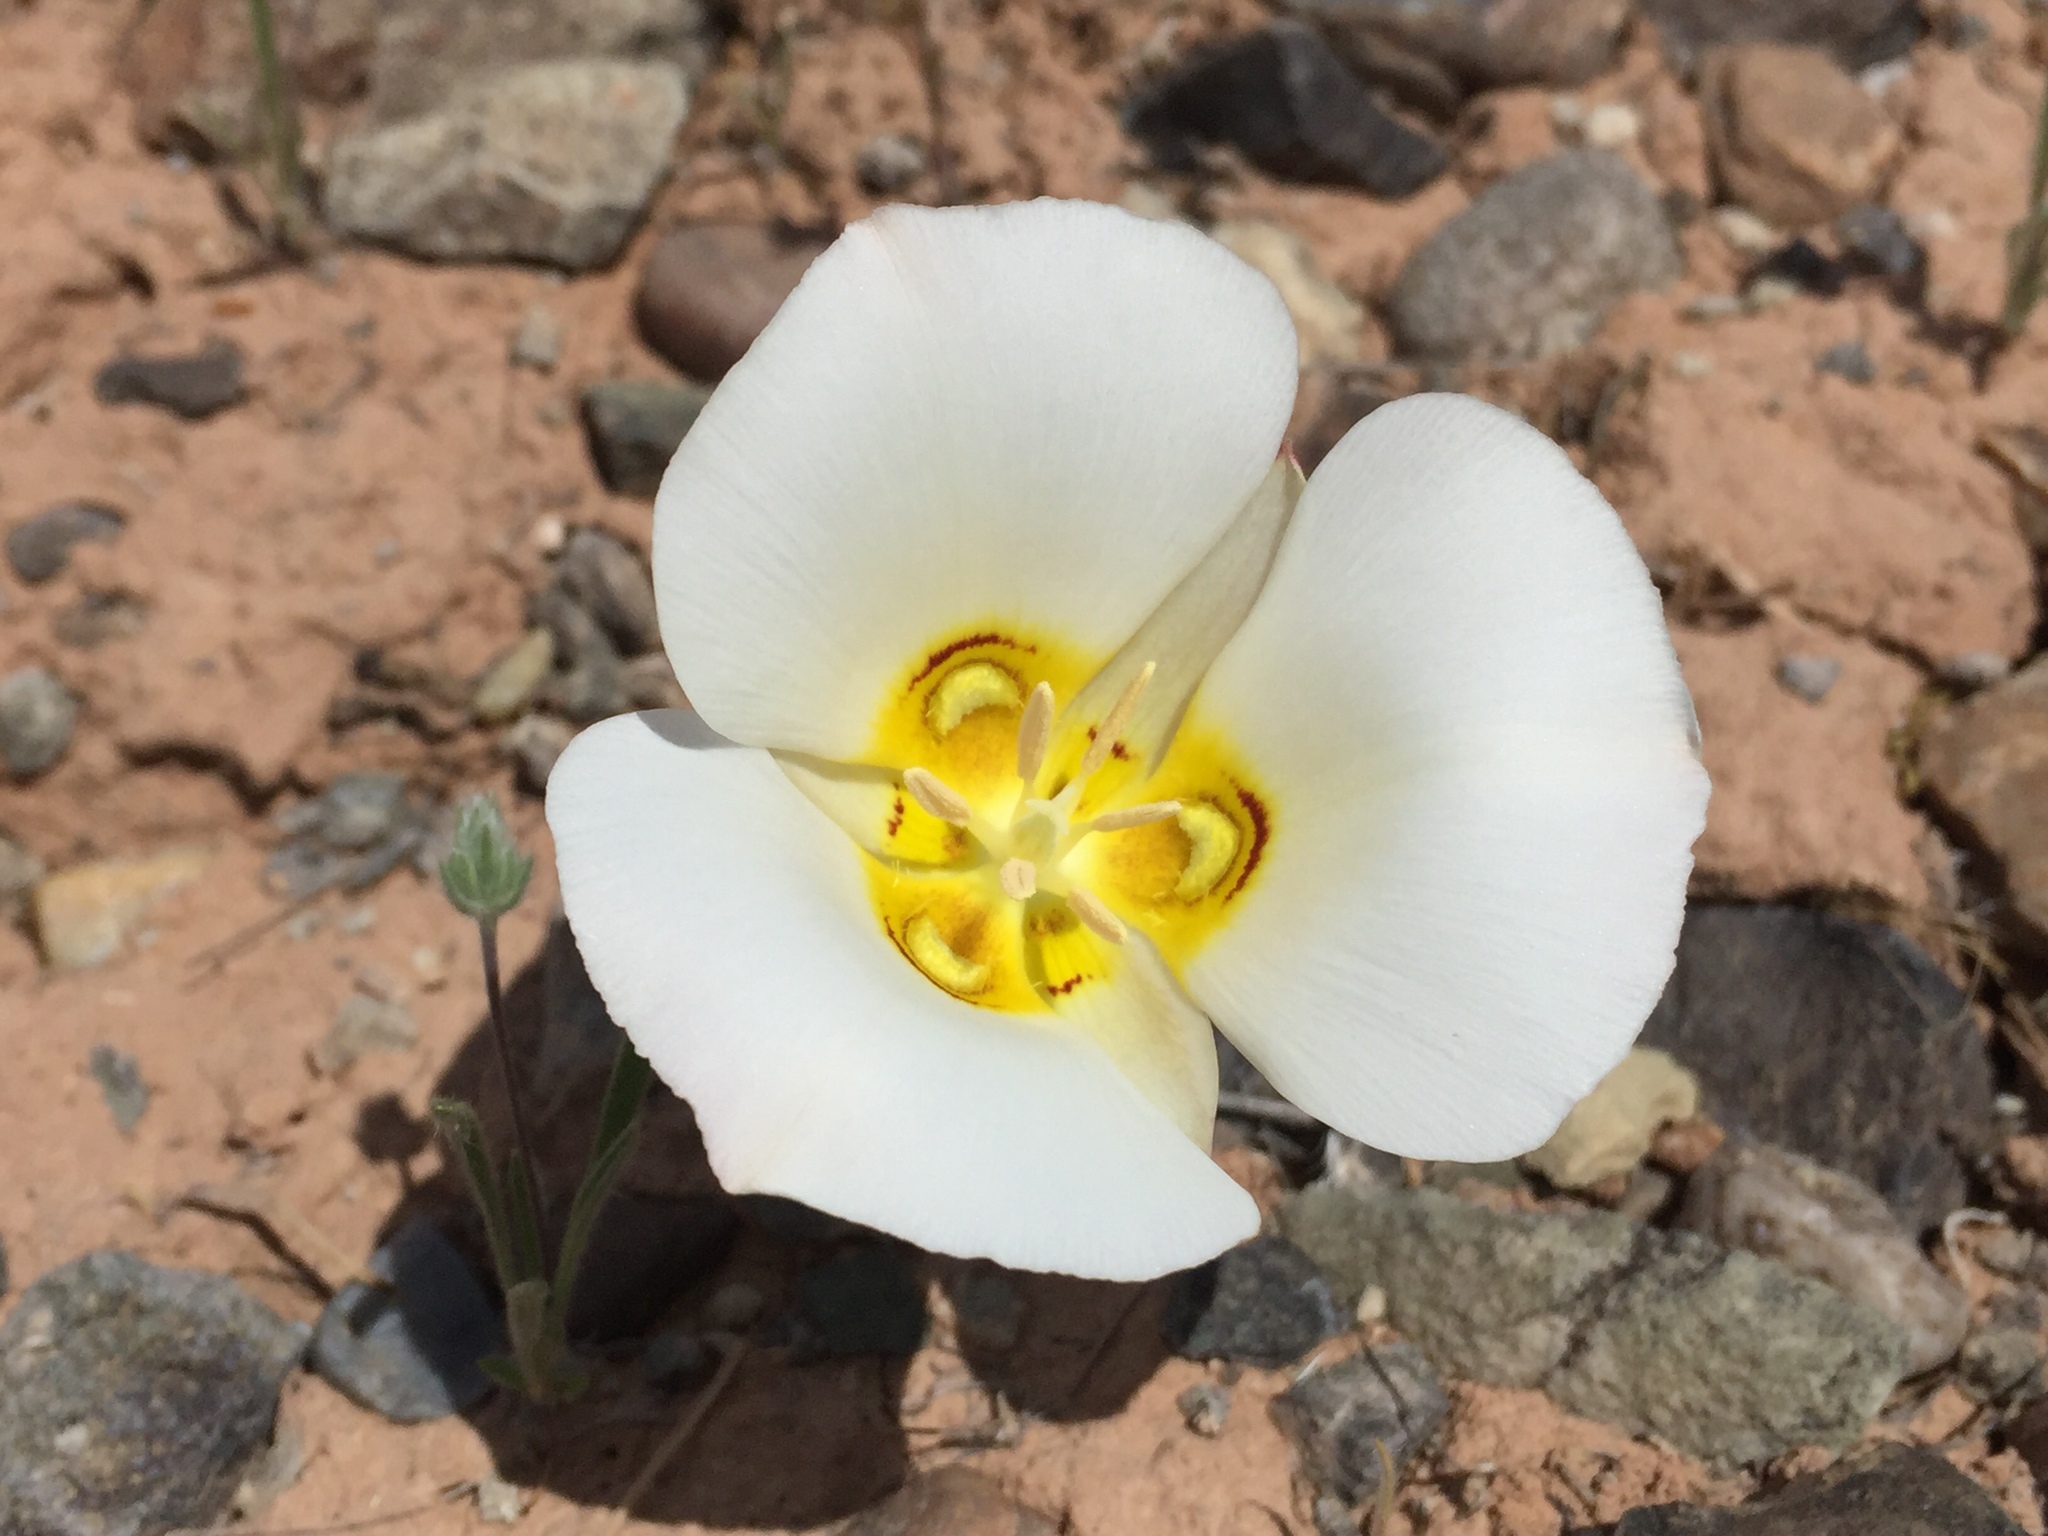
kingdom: Plantae
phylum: Tracheophyta
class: Liliopsida
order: Liliales
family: Liliaceae
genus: Calochortus
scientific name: Calochortus nuttallii
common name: Sego-lily
